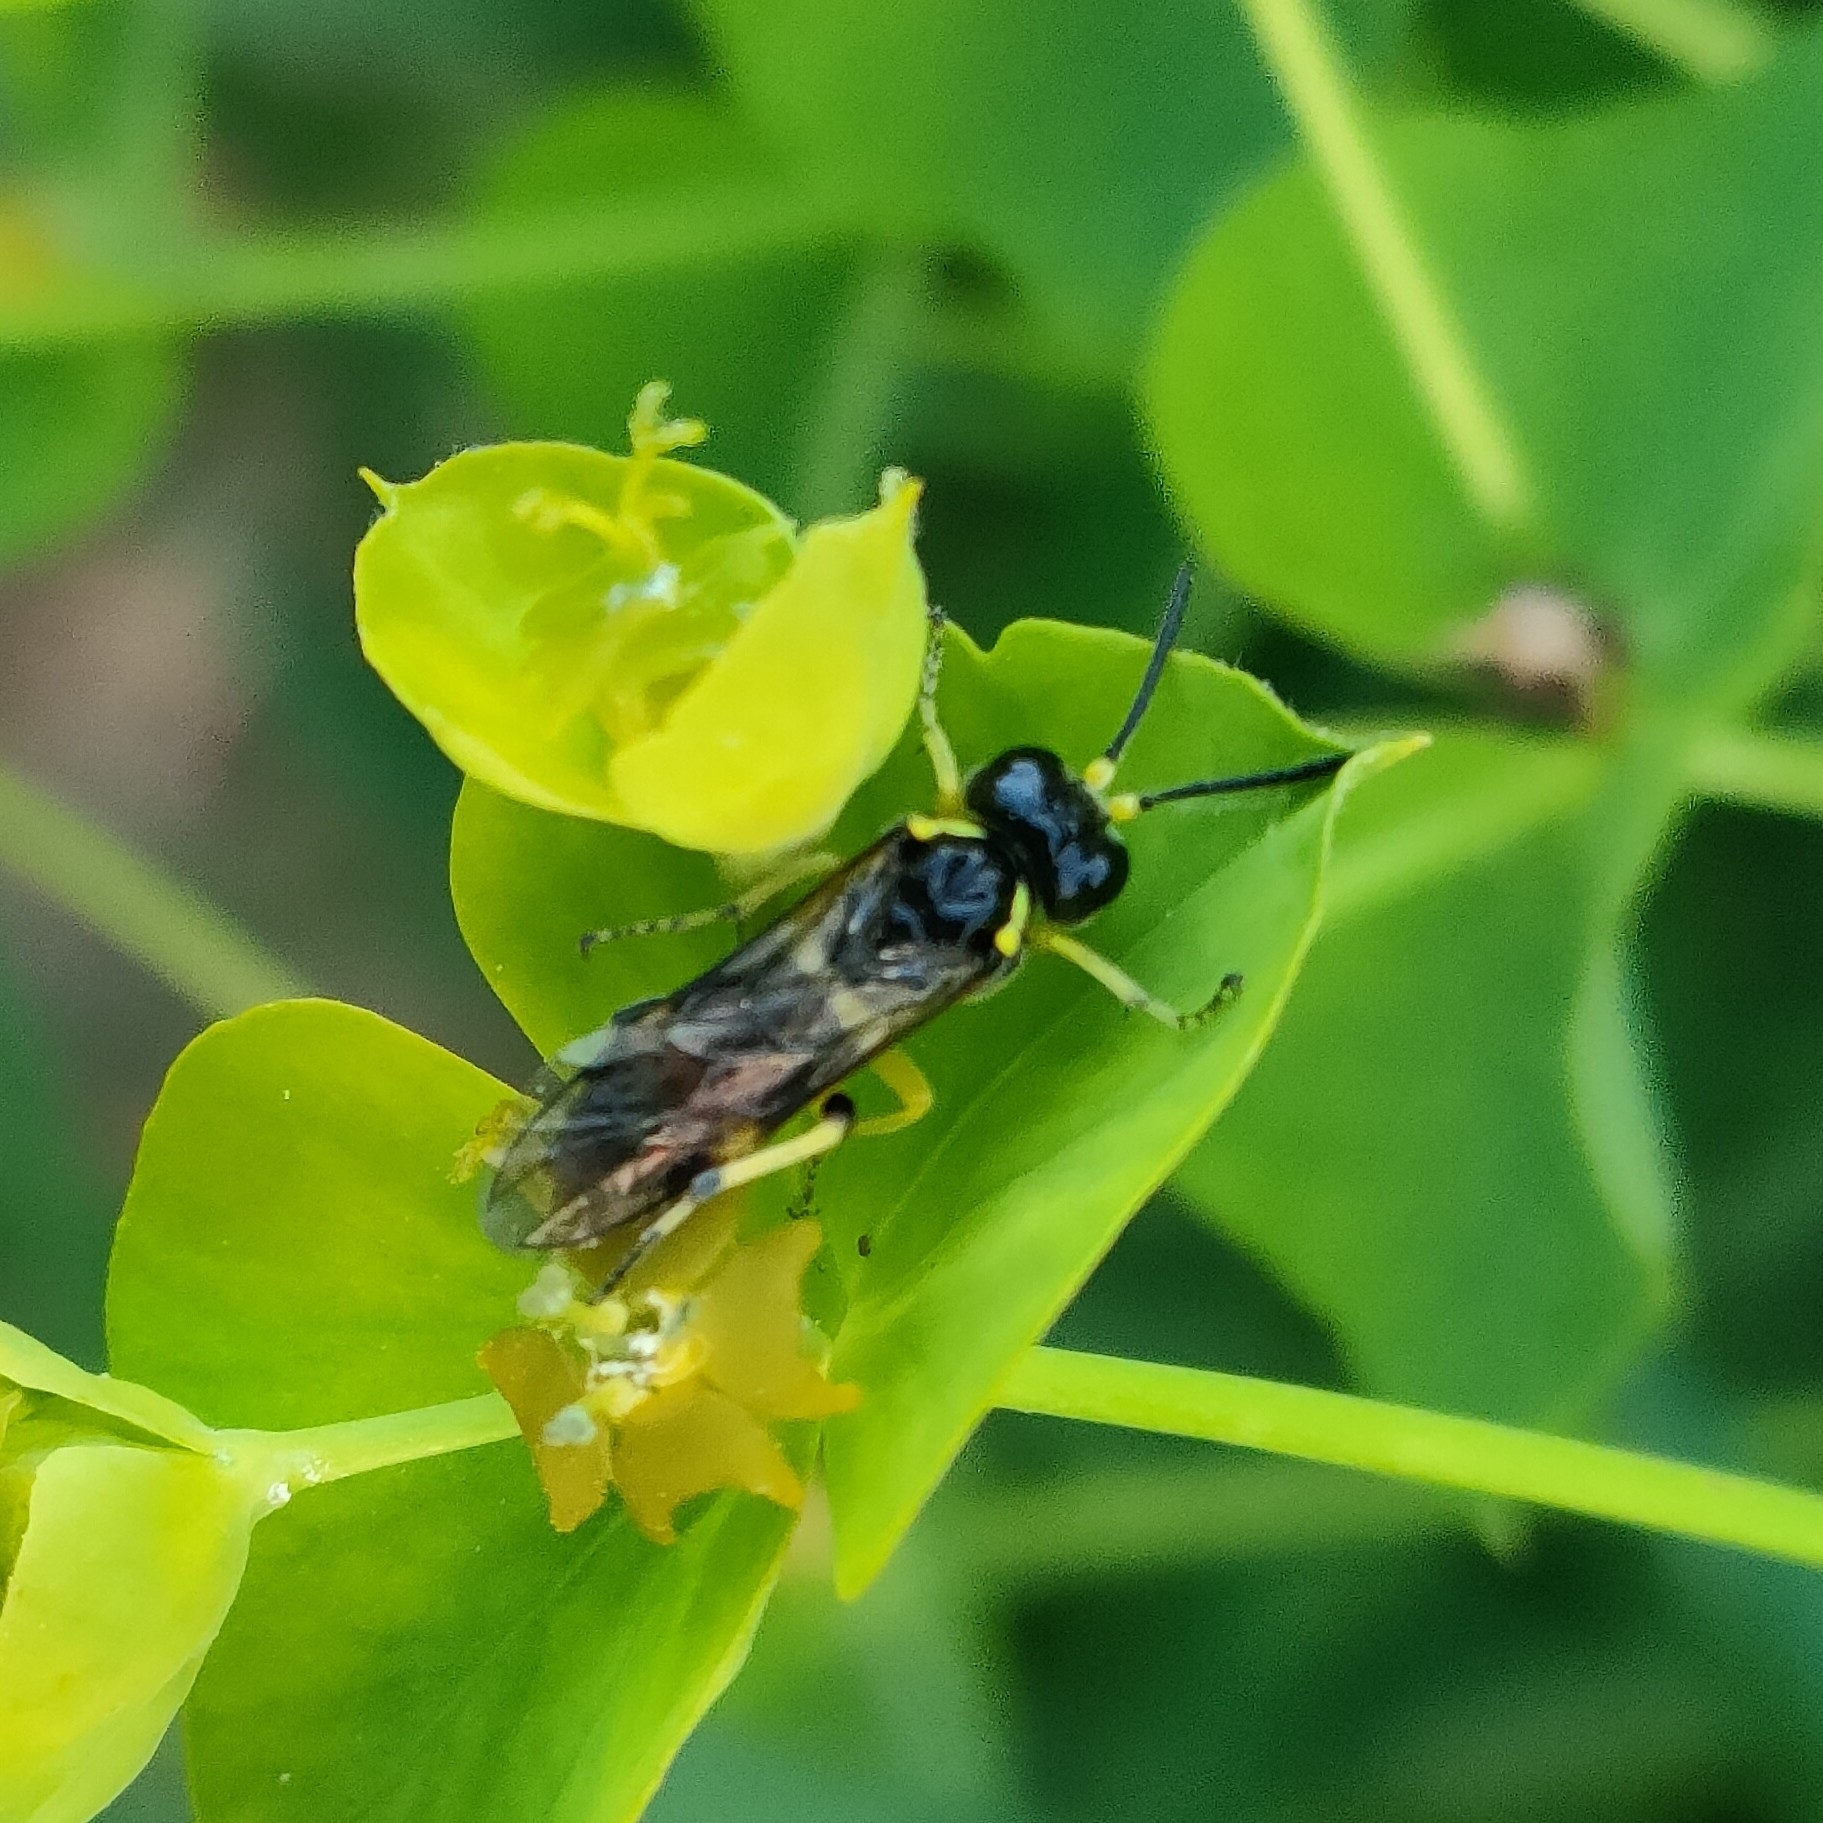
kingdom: Animalia
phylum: Arthropoda
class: Insecta
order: Hymenoptera
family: Tenthredinidae
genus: Tenthredo
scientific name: Tenthredo zonula
